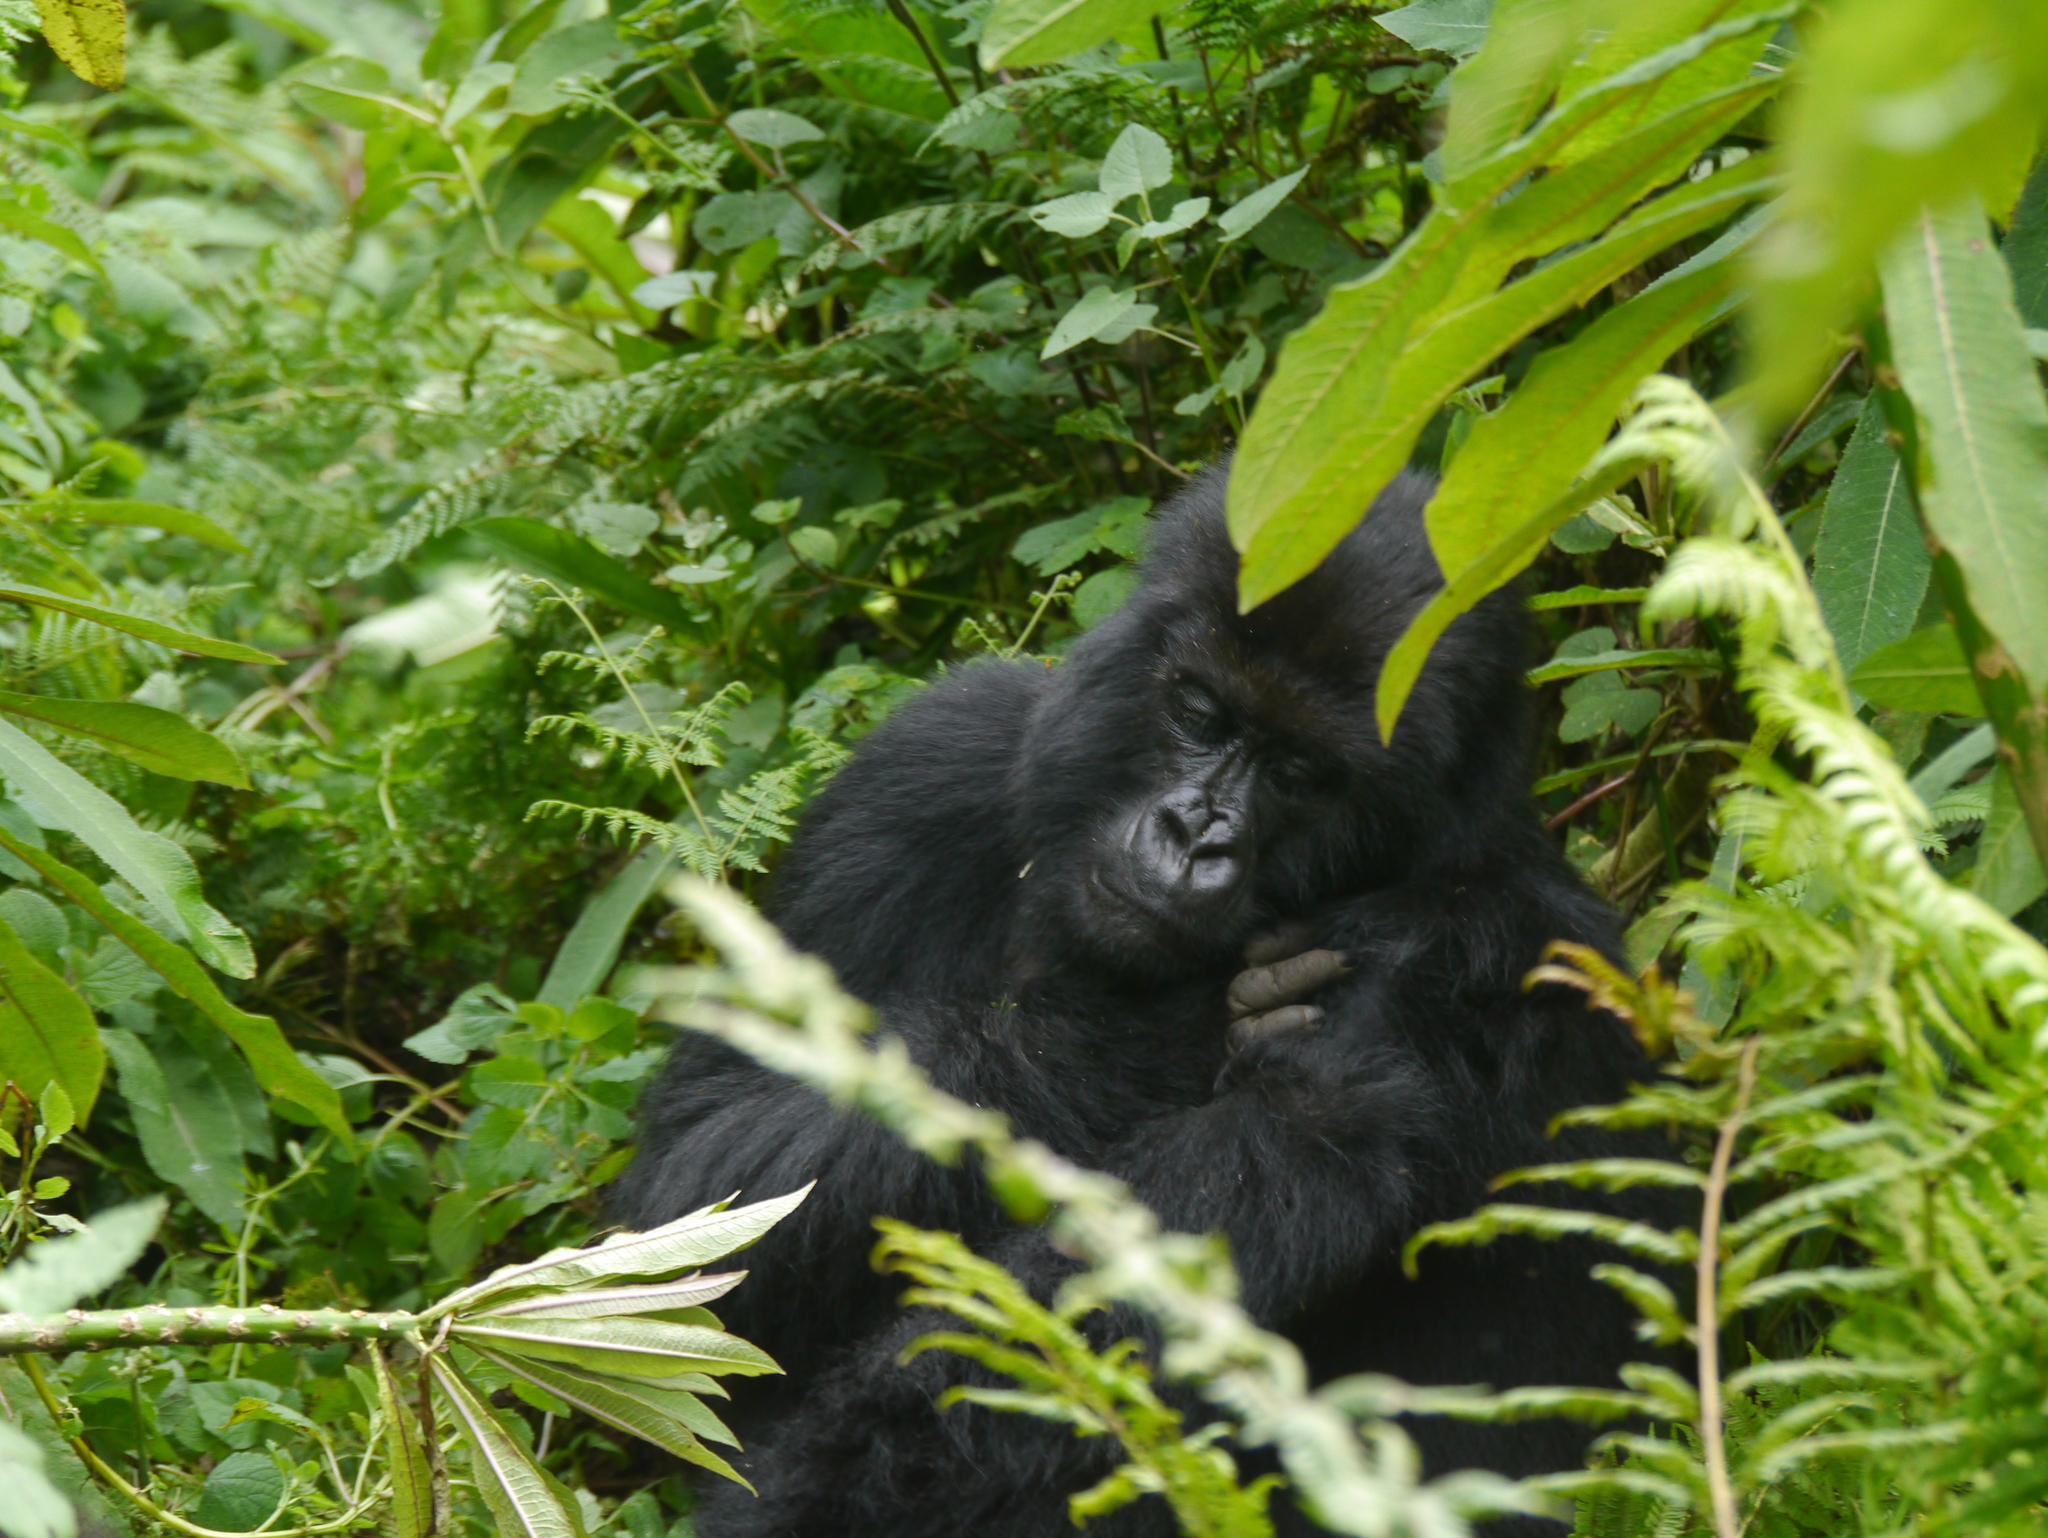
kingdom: Animalia
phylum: Chordata
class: Mammalia
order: Primates
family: Hominidae
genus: Gorilla
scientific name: Gorilla beringei
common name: Eastern gorilla
